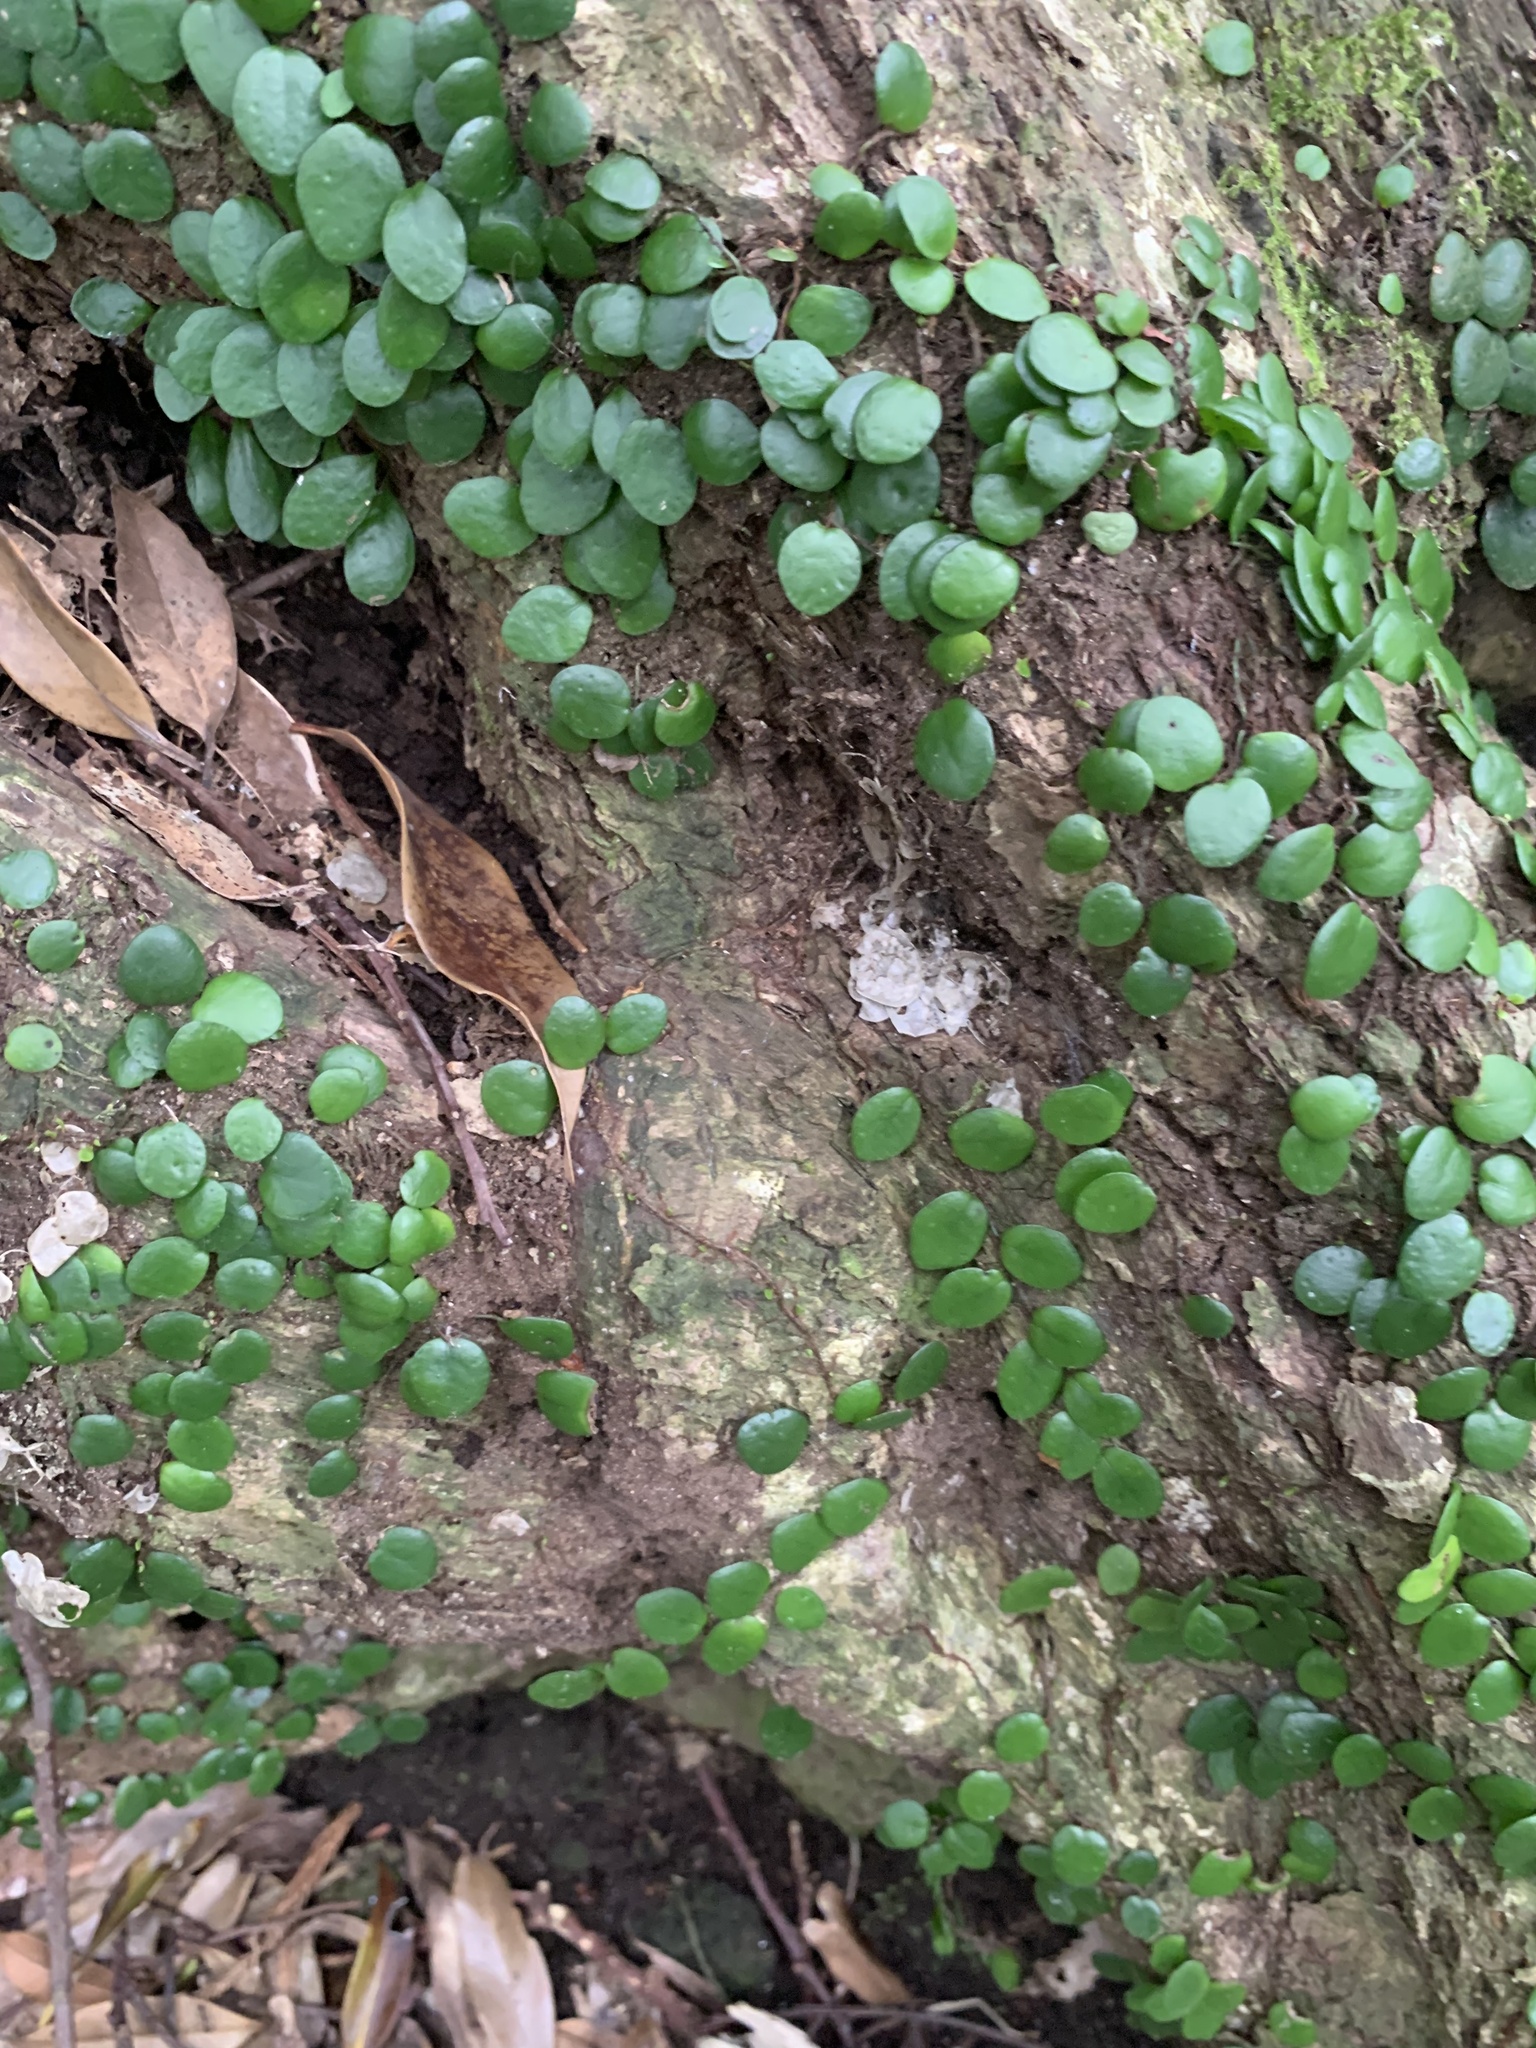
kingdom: Plantae
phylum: Tracheophyta
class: Polypodiopsida
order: Polypodiales
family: Polypodiaceae
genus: Lepisorus
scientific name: Lepisorus microphyllus
